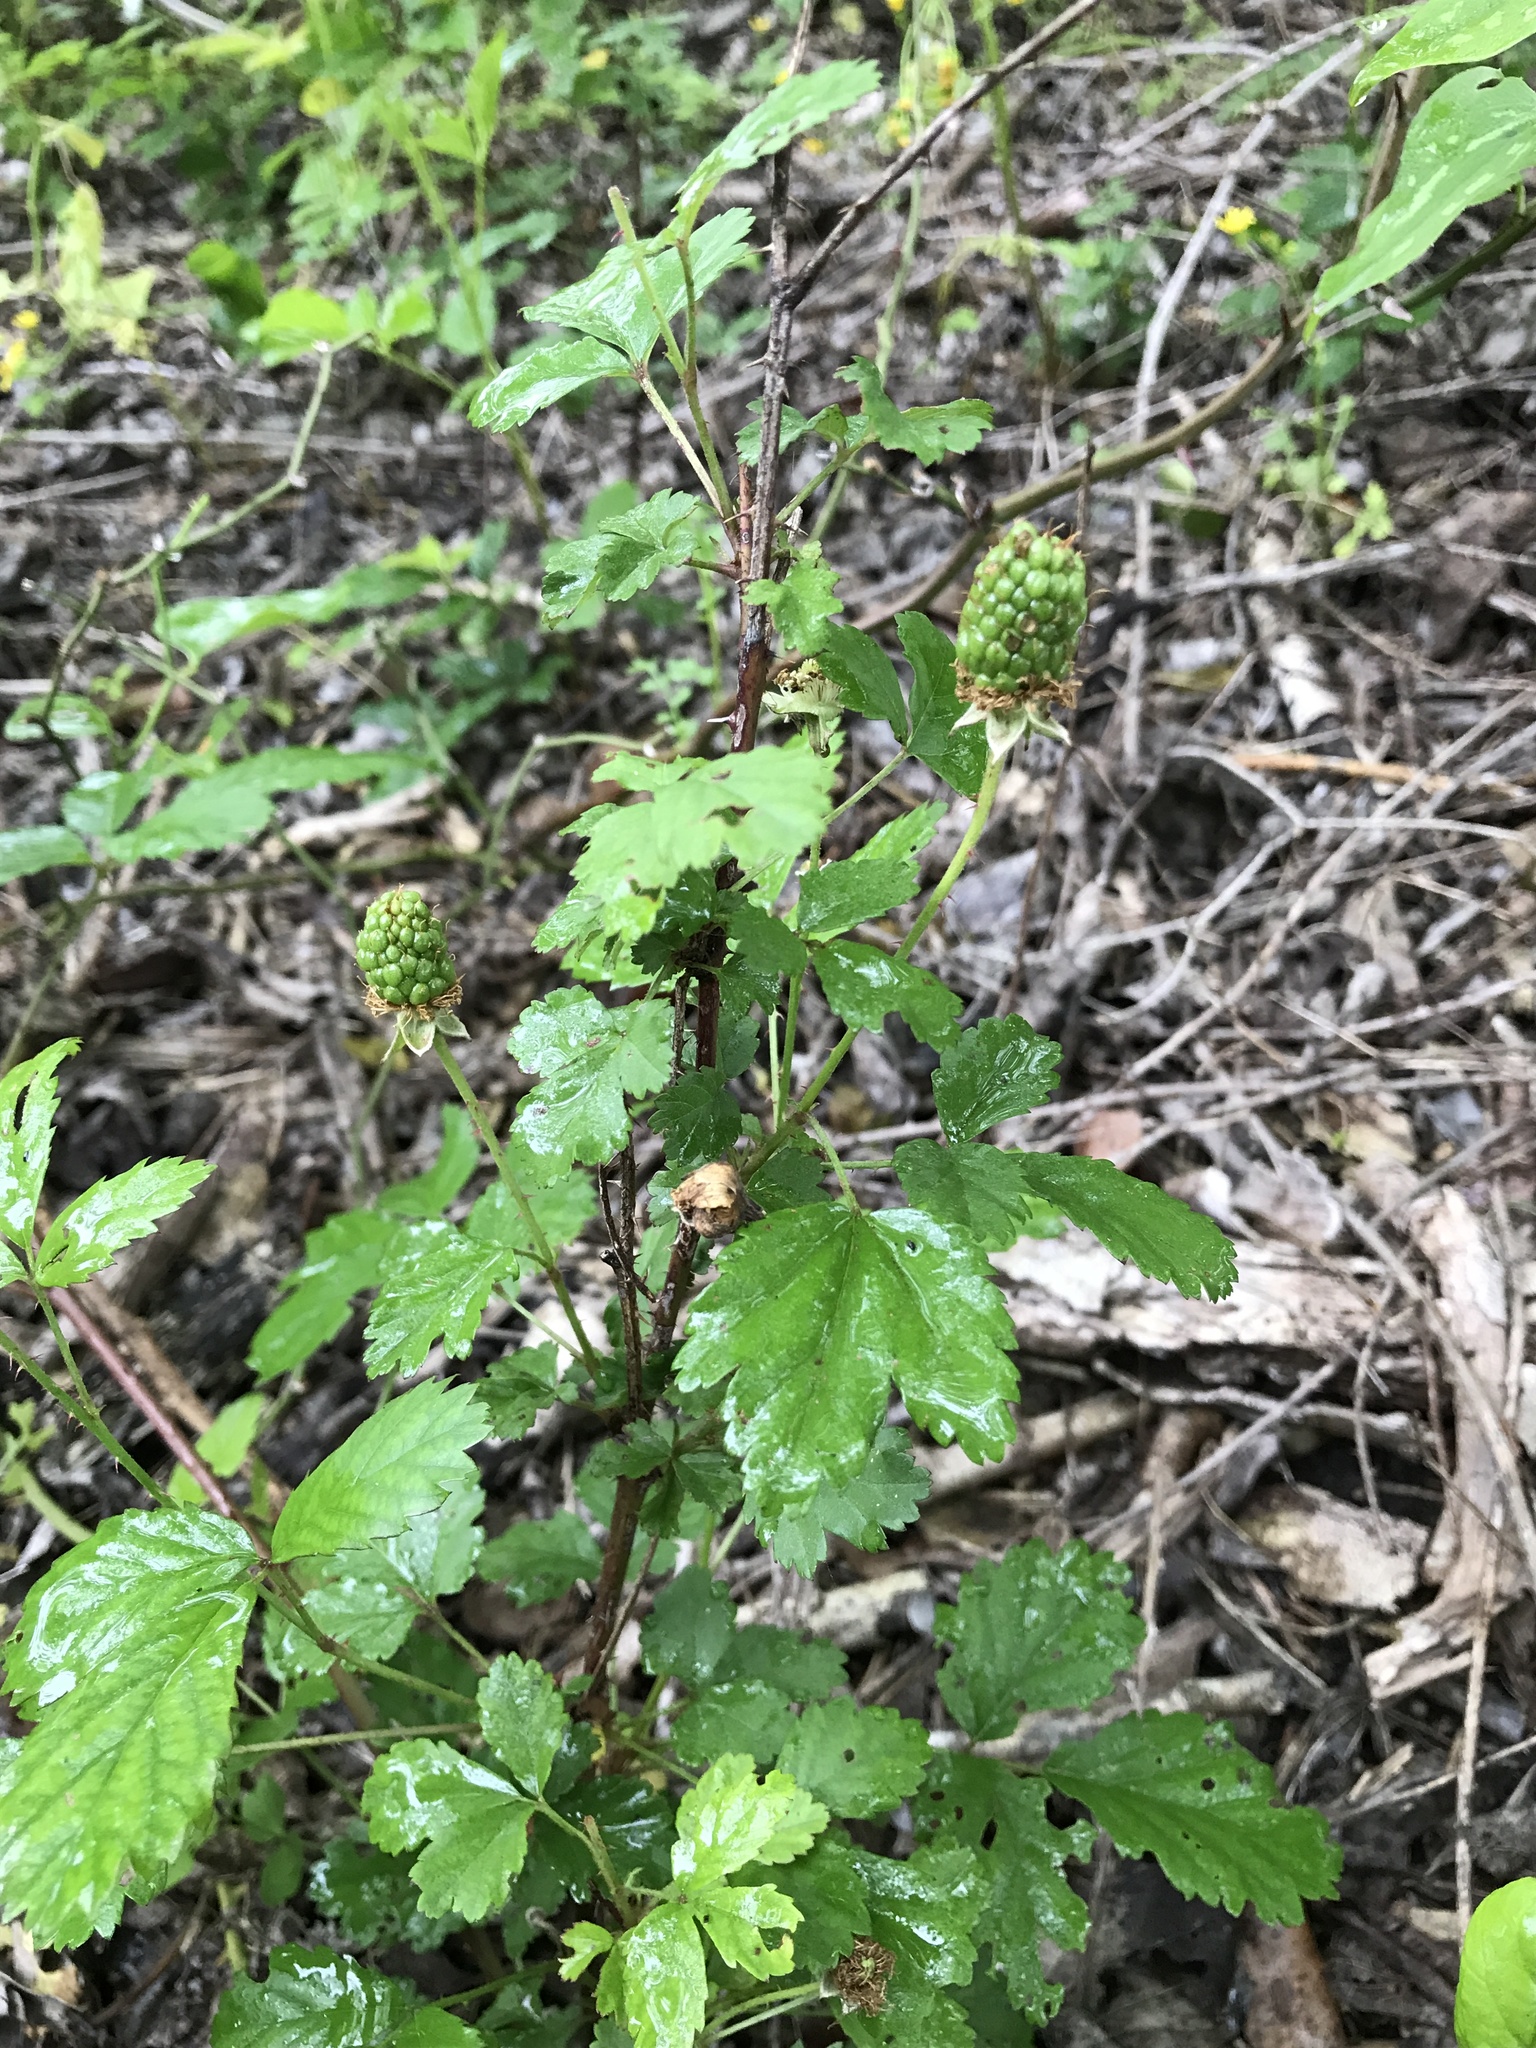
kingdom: Plantae
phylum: Tracheophyta
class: Magnoliopsida
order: Rosales
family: Rosaceae
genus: Rubus
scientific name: Rubus trivialis
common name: Southern dewberry
